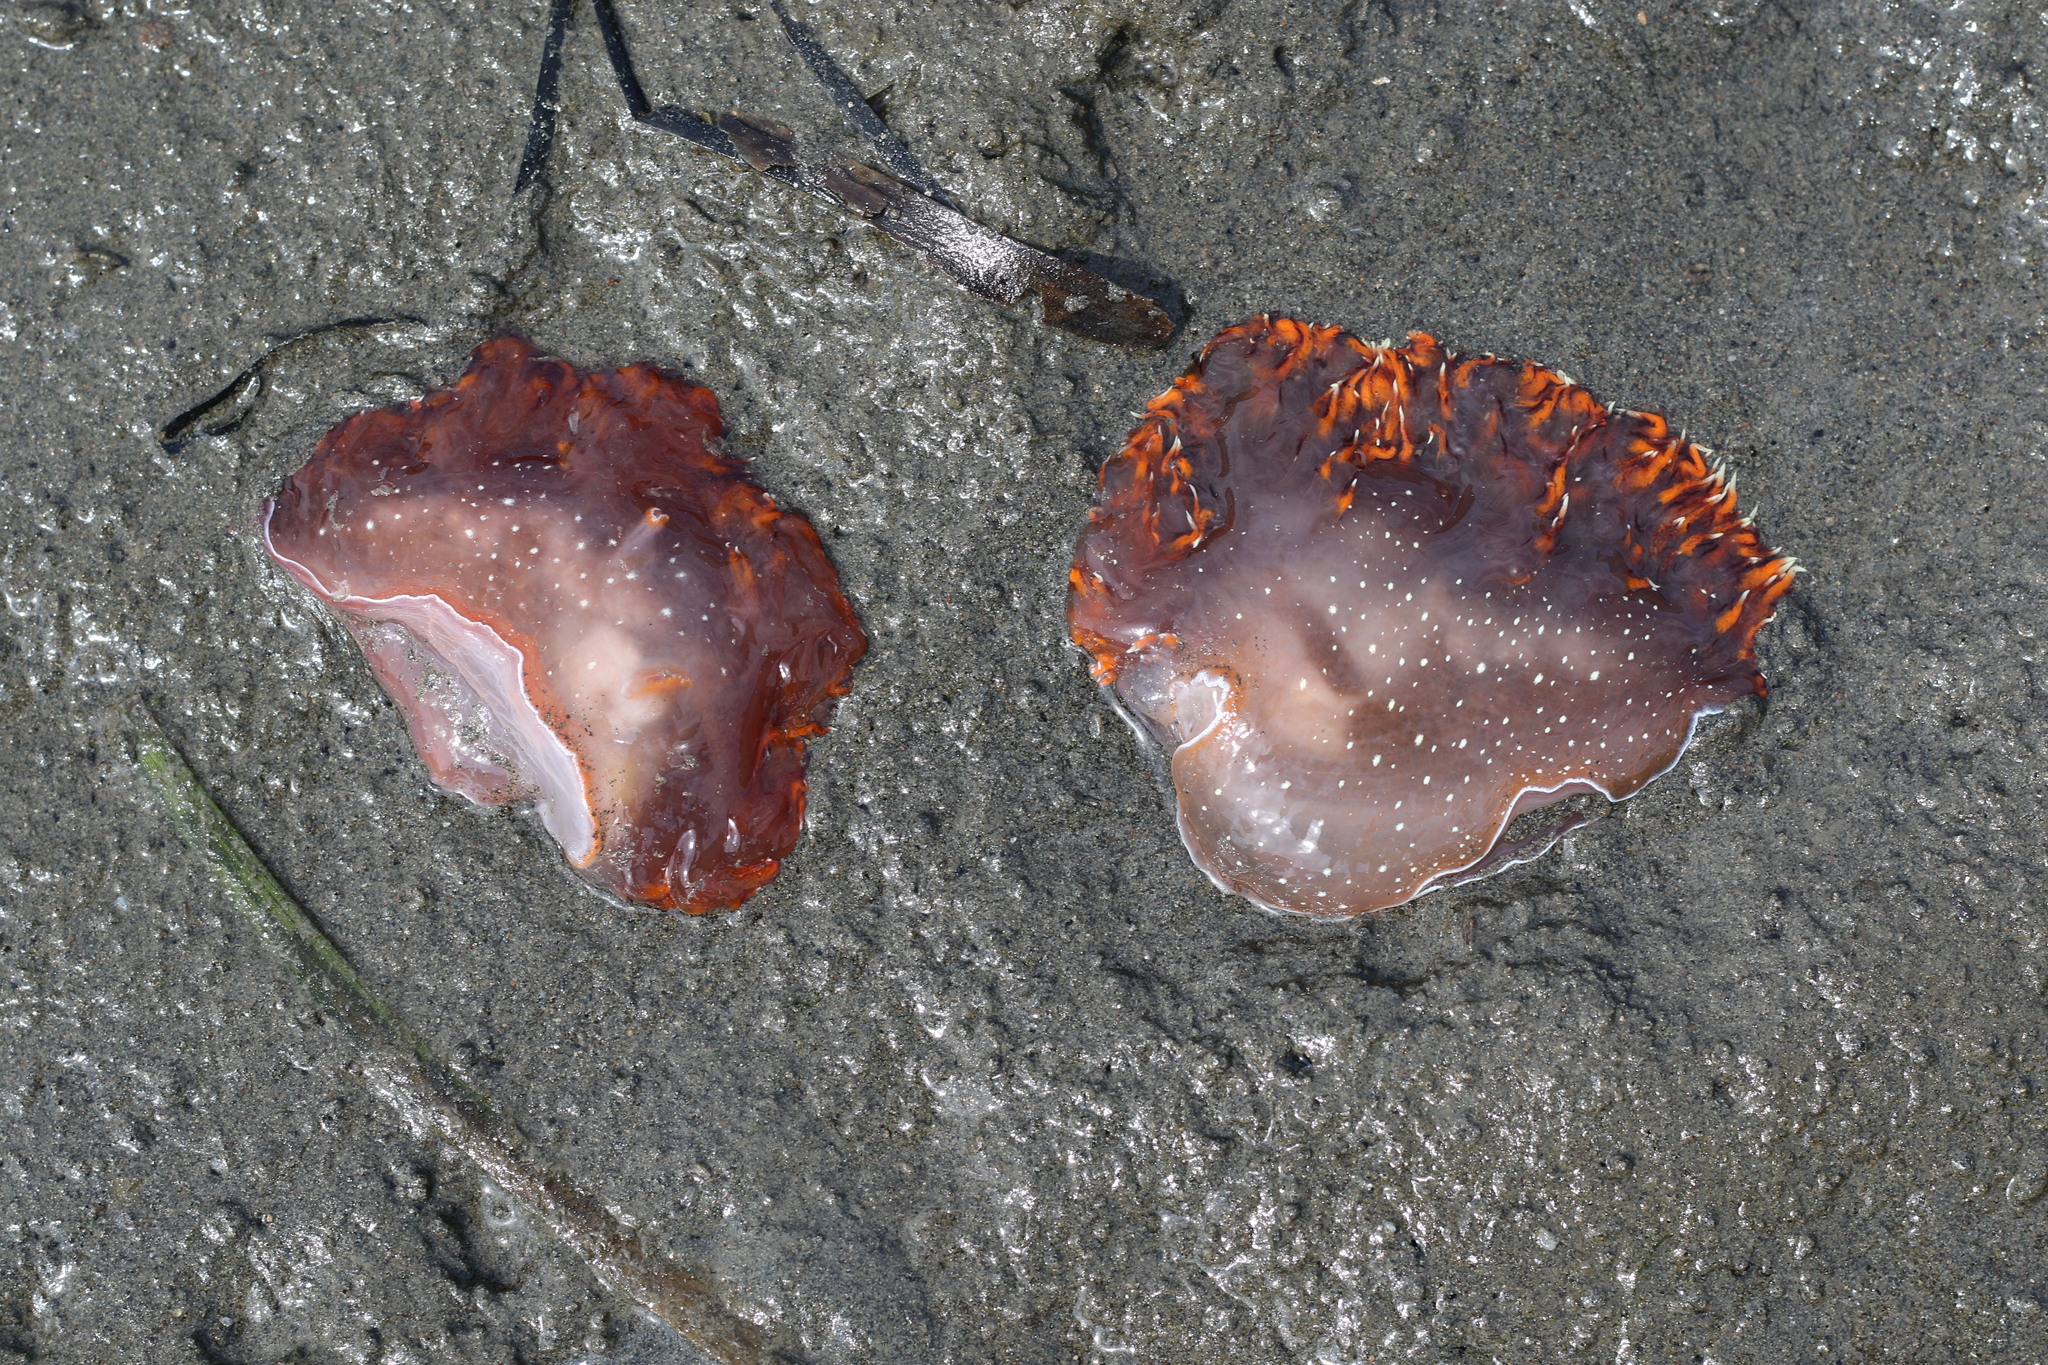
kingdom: Animalia
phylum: Mollusca
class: Gastropoda
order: Nudibranchia
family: Dendronotidae
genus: Dendronotus
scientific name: Dendronotus iris
